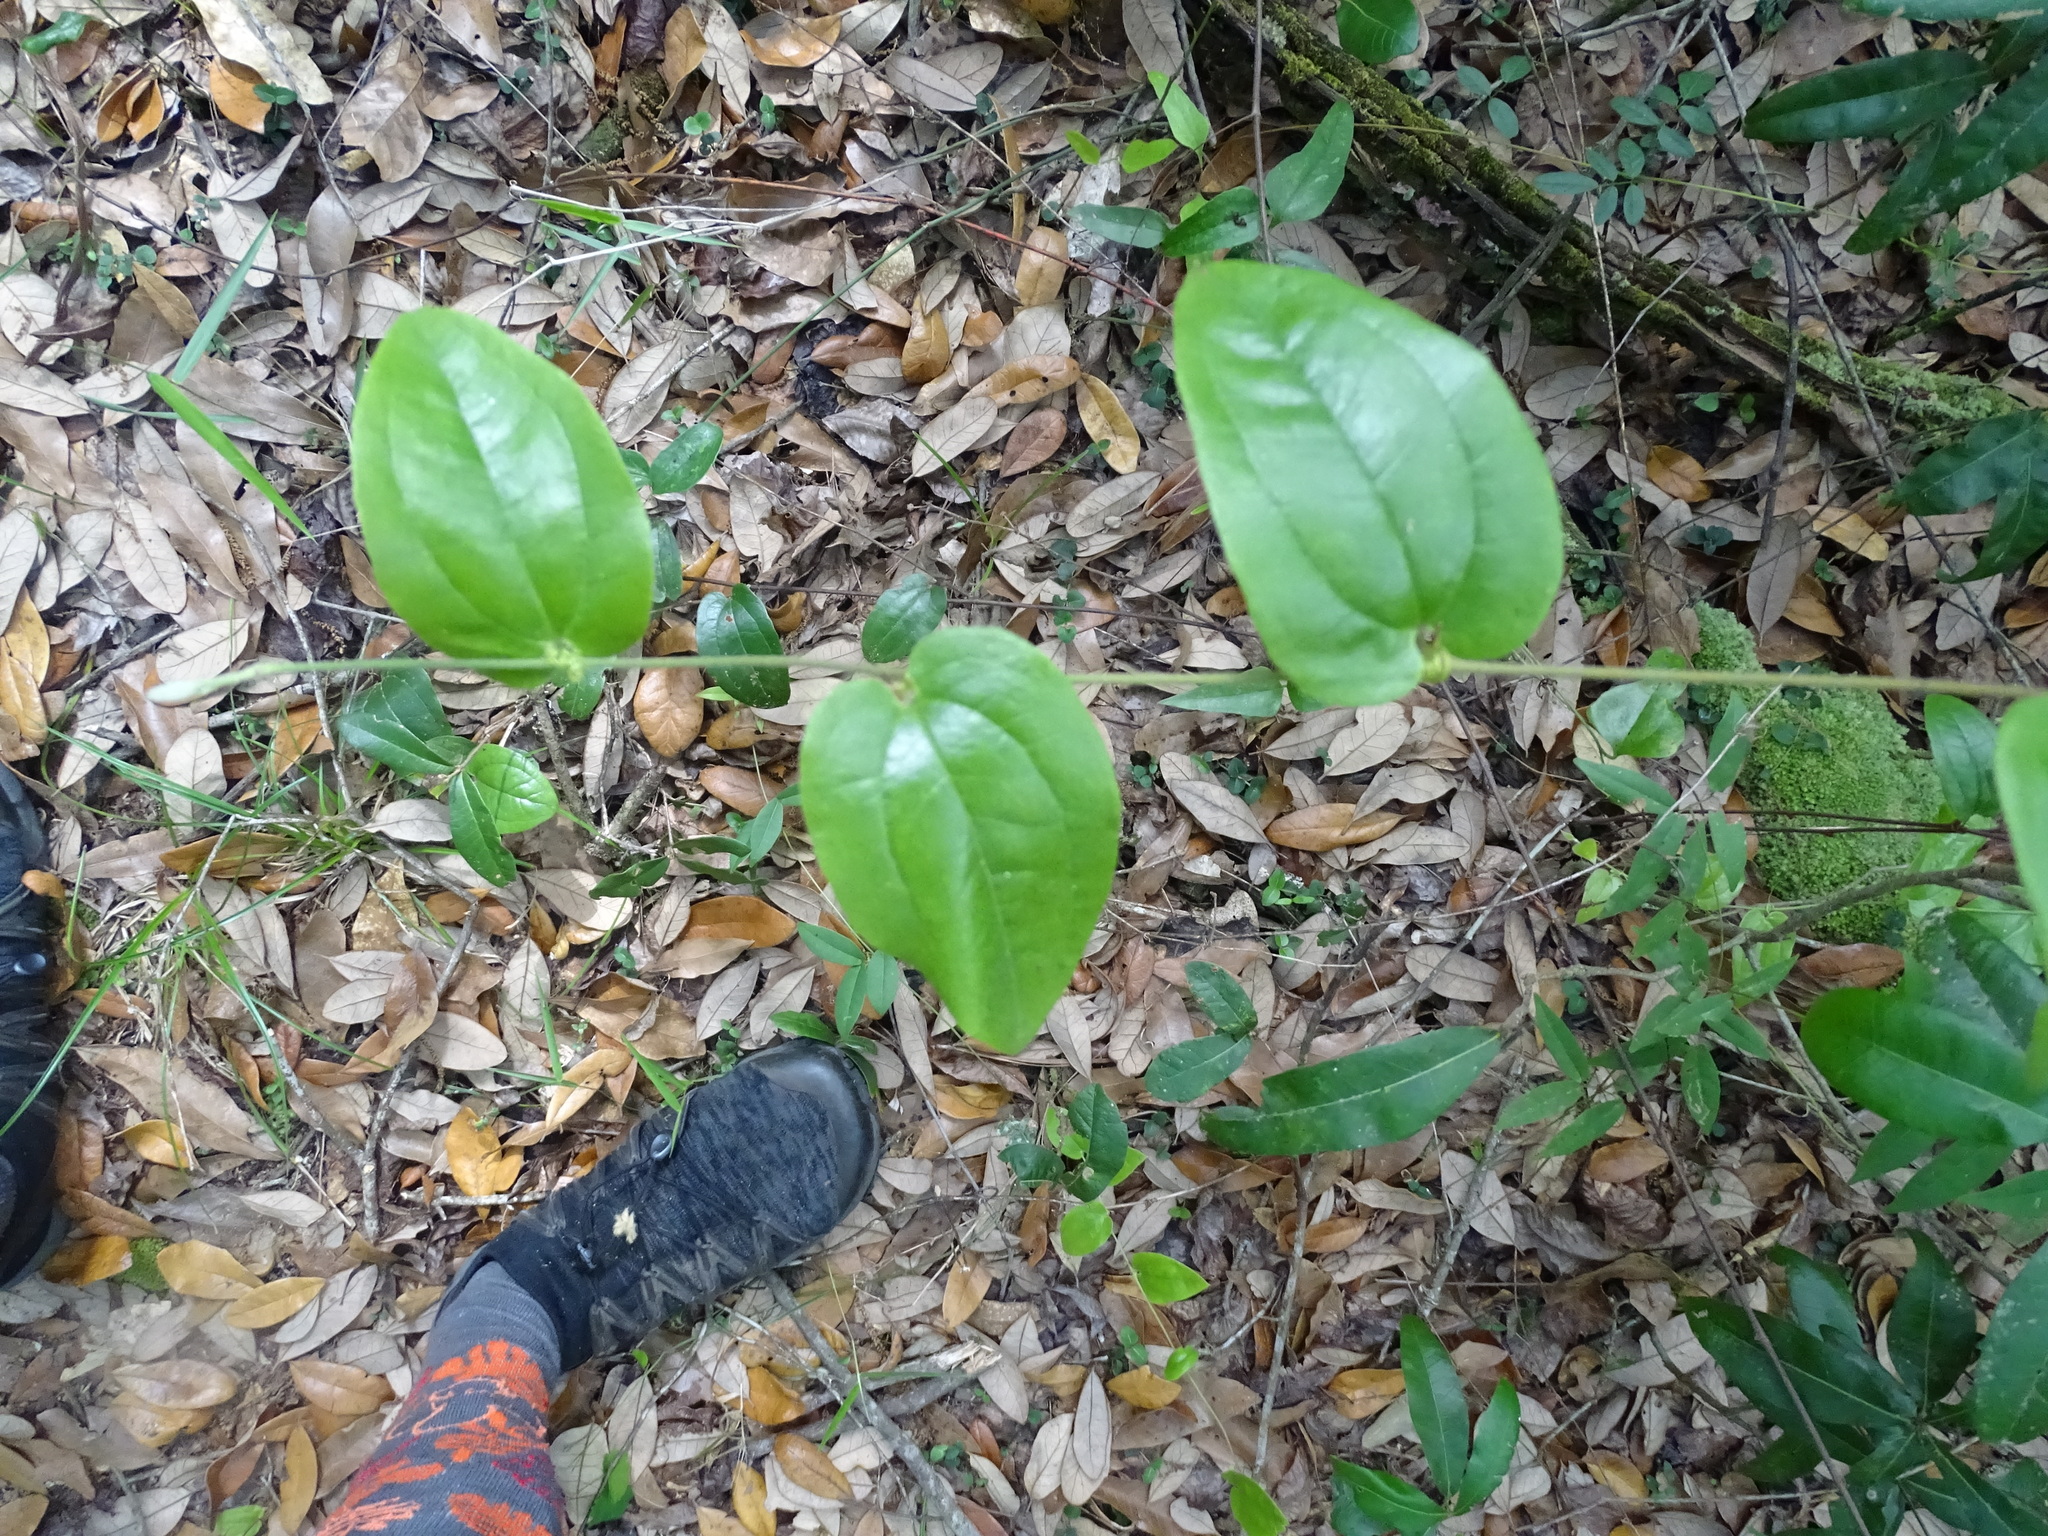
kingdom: Plantae
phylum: Tracheophyta
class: Liliopsida
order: Liliales
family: Smilacaceae
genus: Smilax
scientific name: Smilax pumila
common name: Sarsaparilla-vine
